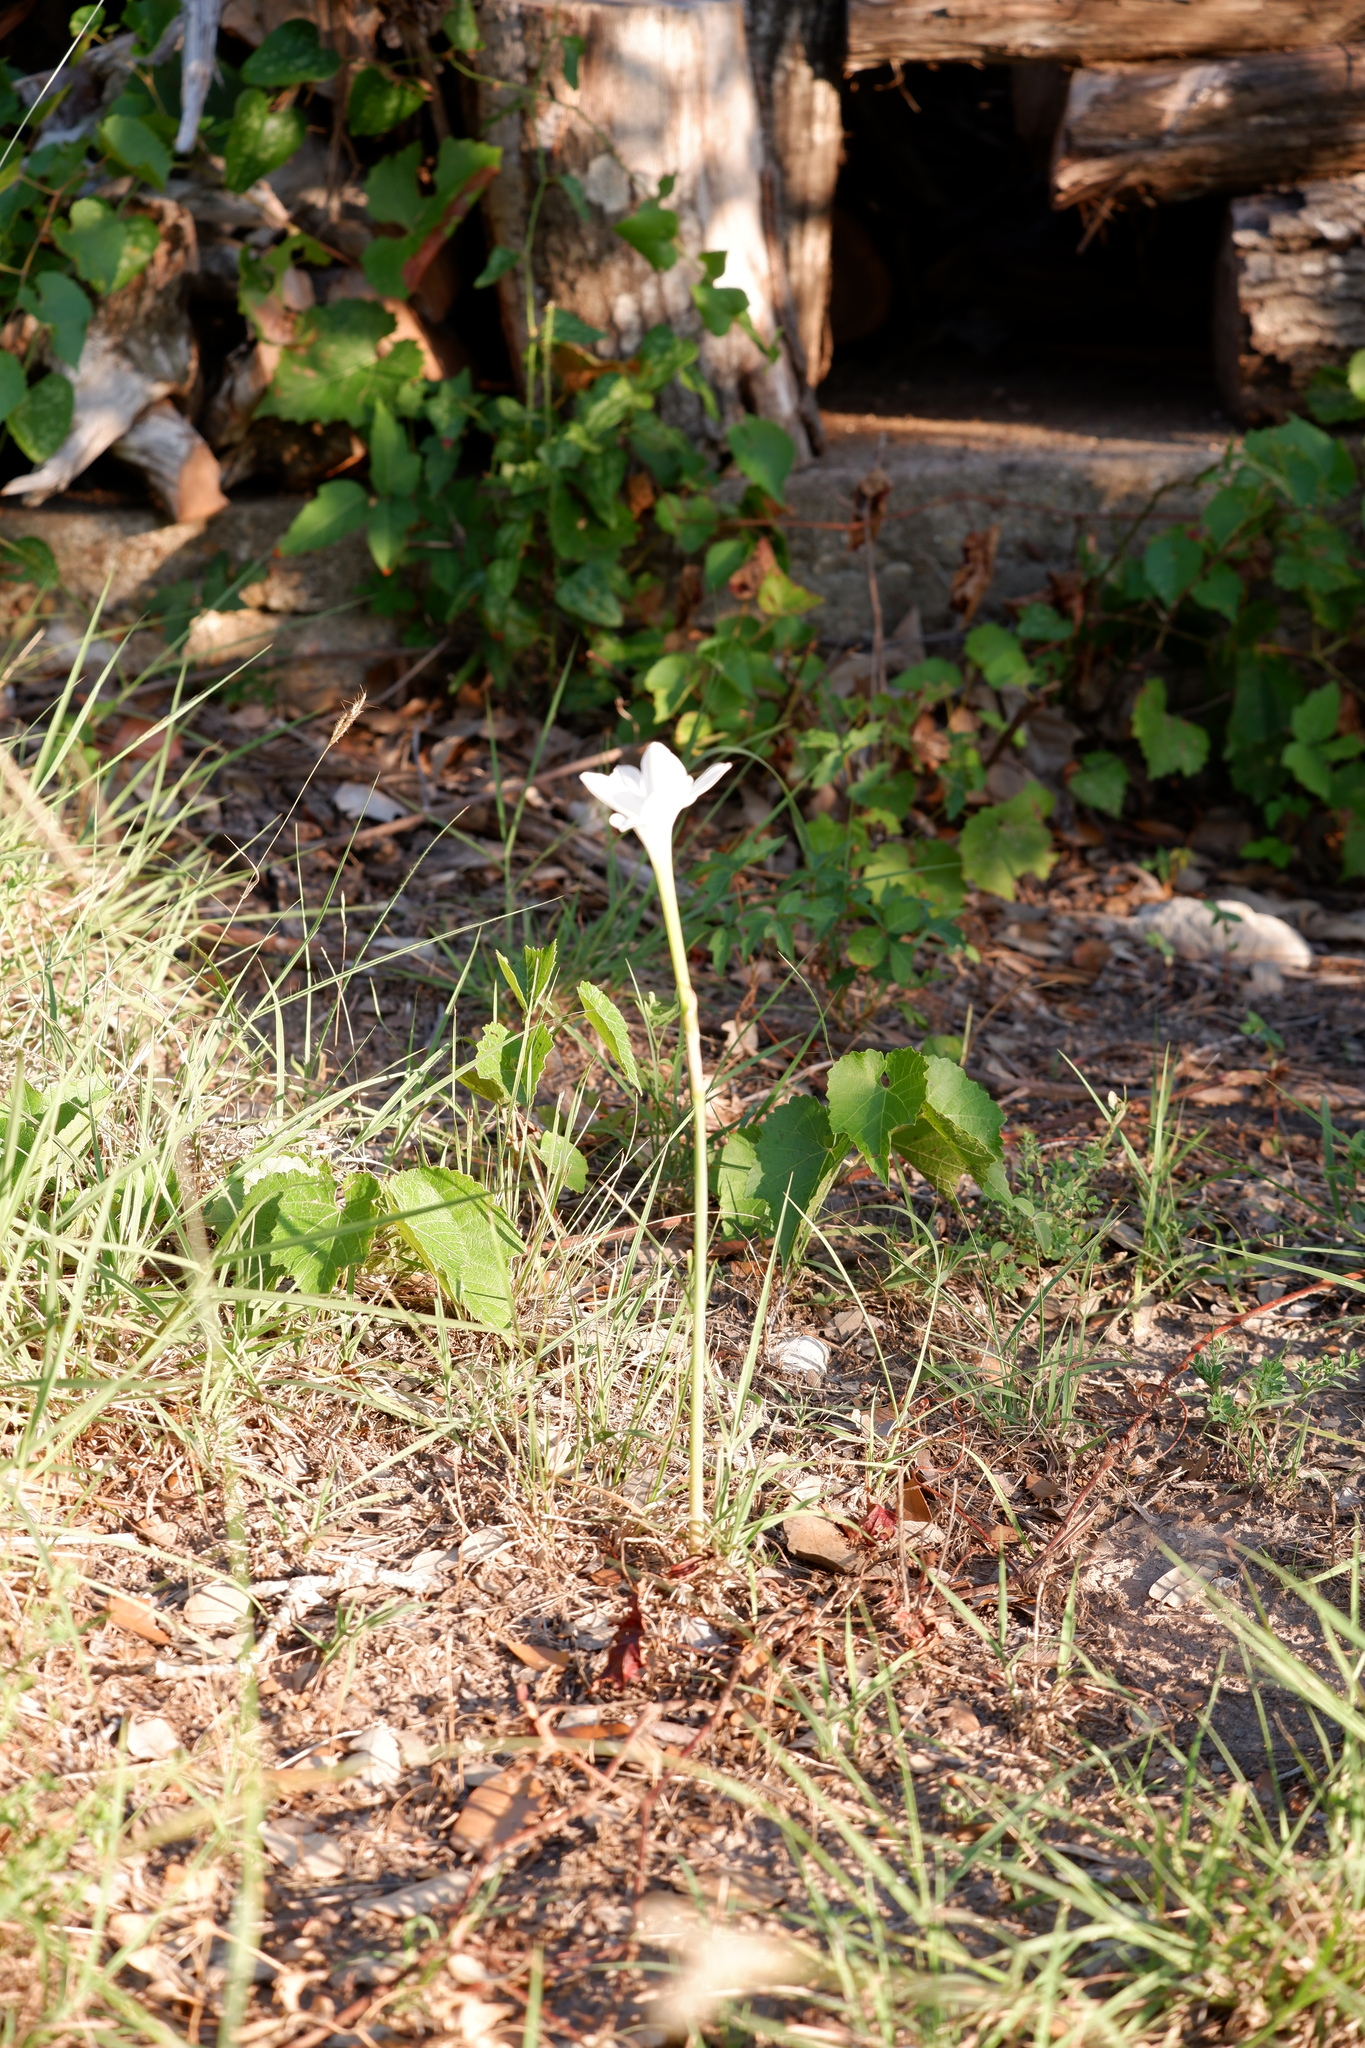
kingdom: Plantae
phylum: Tracheophyta
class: Liliopsida
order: Asparagales
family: Amaryllidaceae
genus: Zephyranthes
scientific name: Zephyranthes drummondii
